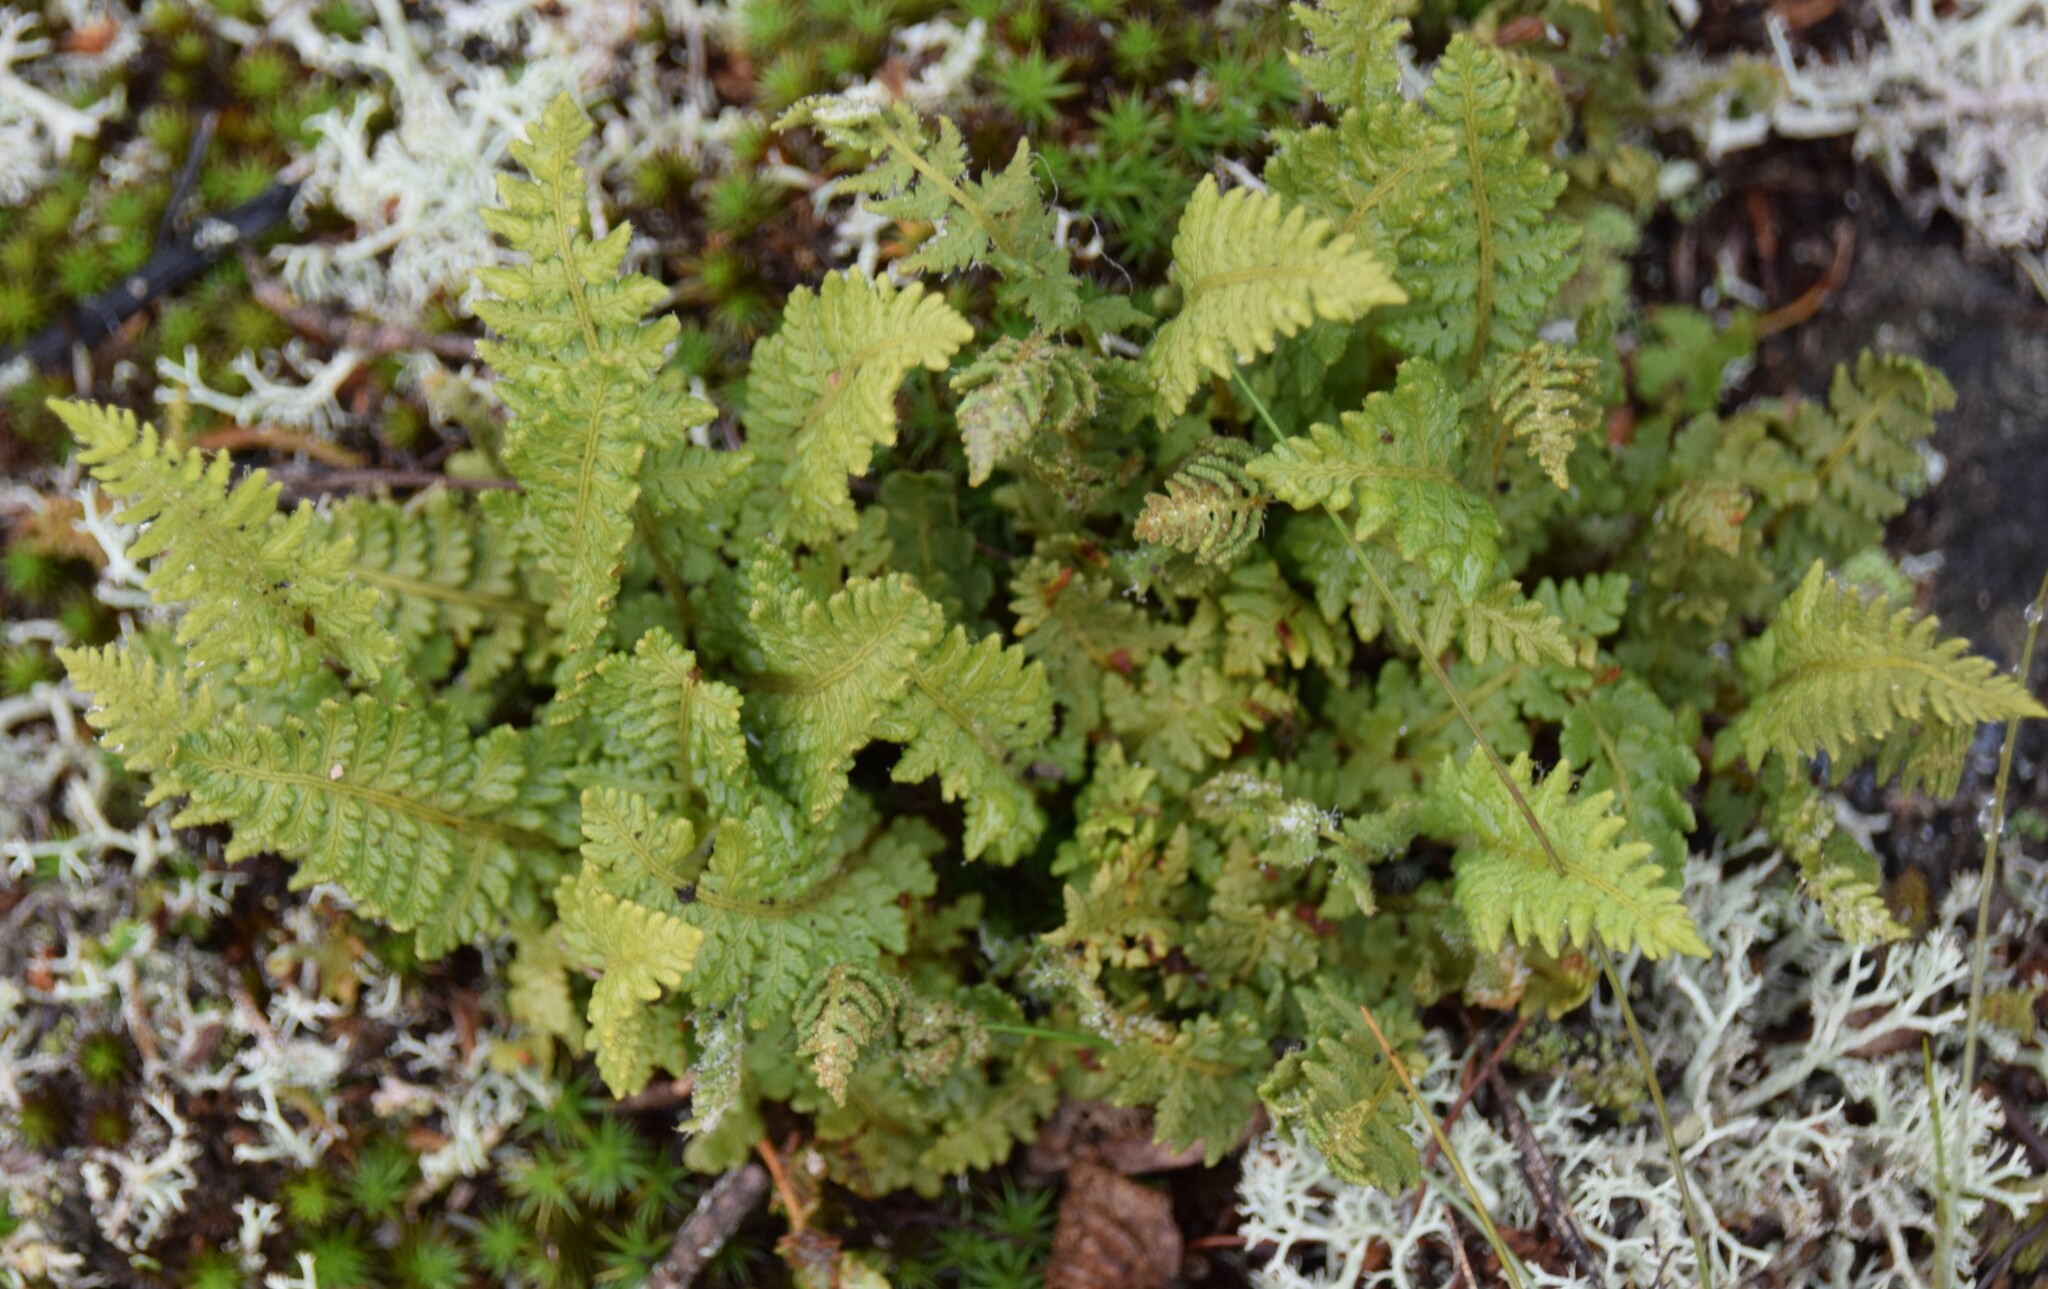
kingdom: Plantae
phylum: Tracheophyta
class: Polypodiopsida
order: Polypodiales
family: Woodsiaceae
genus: Woodsia
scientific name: Woodsia ilvensis
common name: Fragrant woodsia
